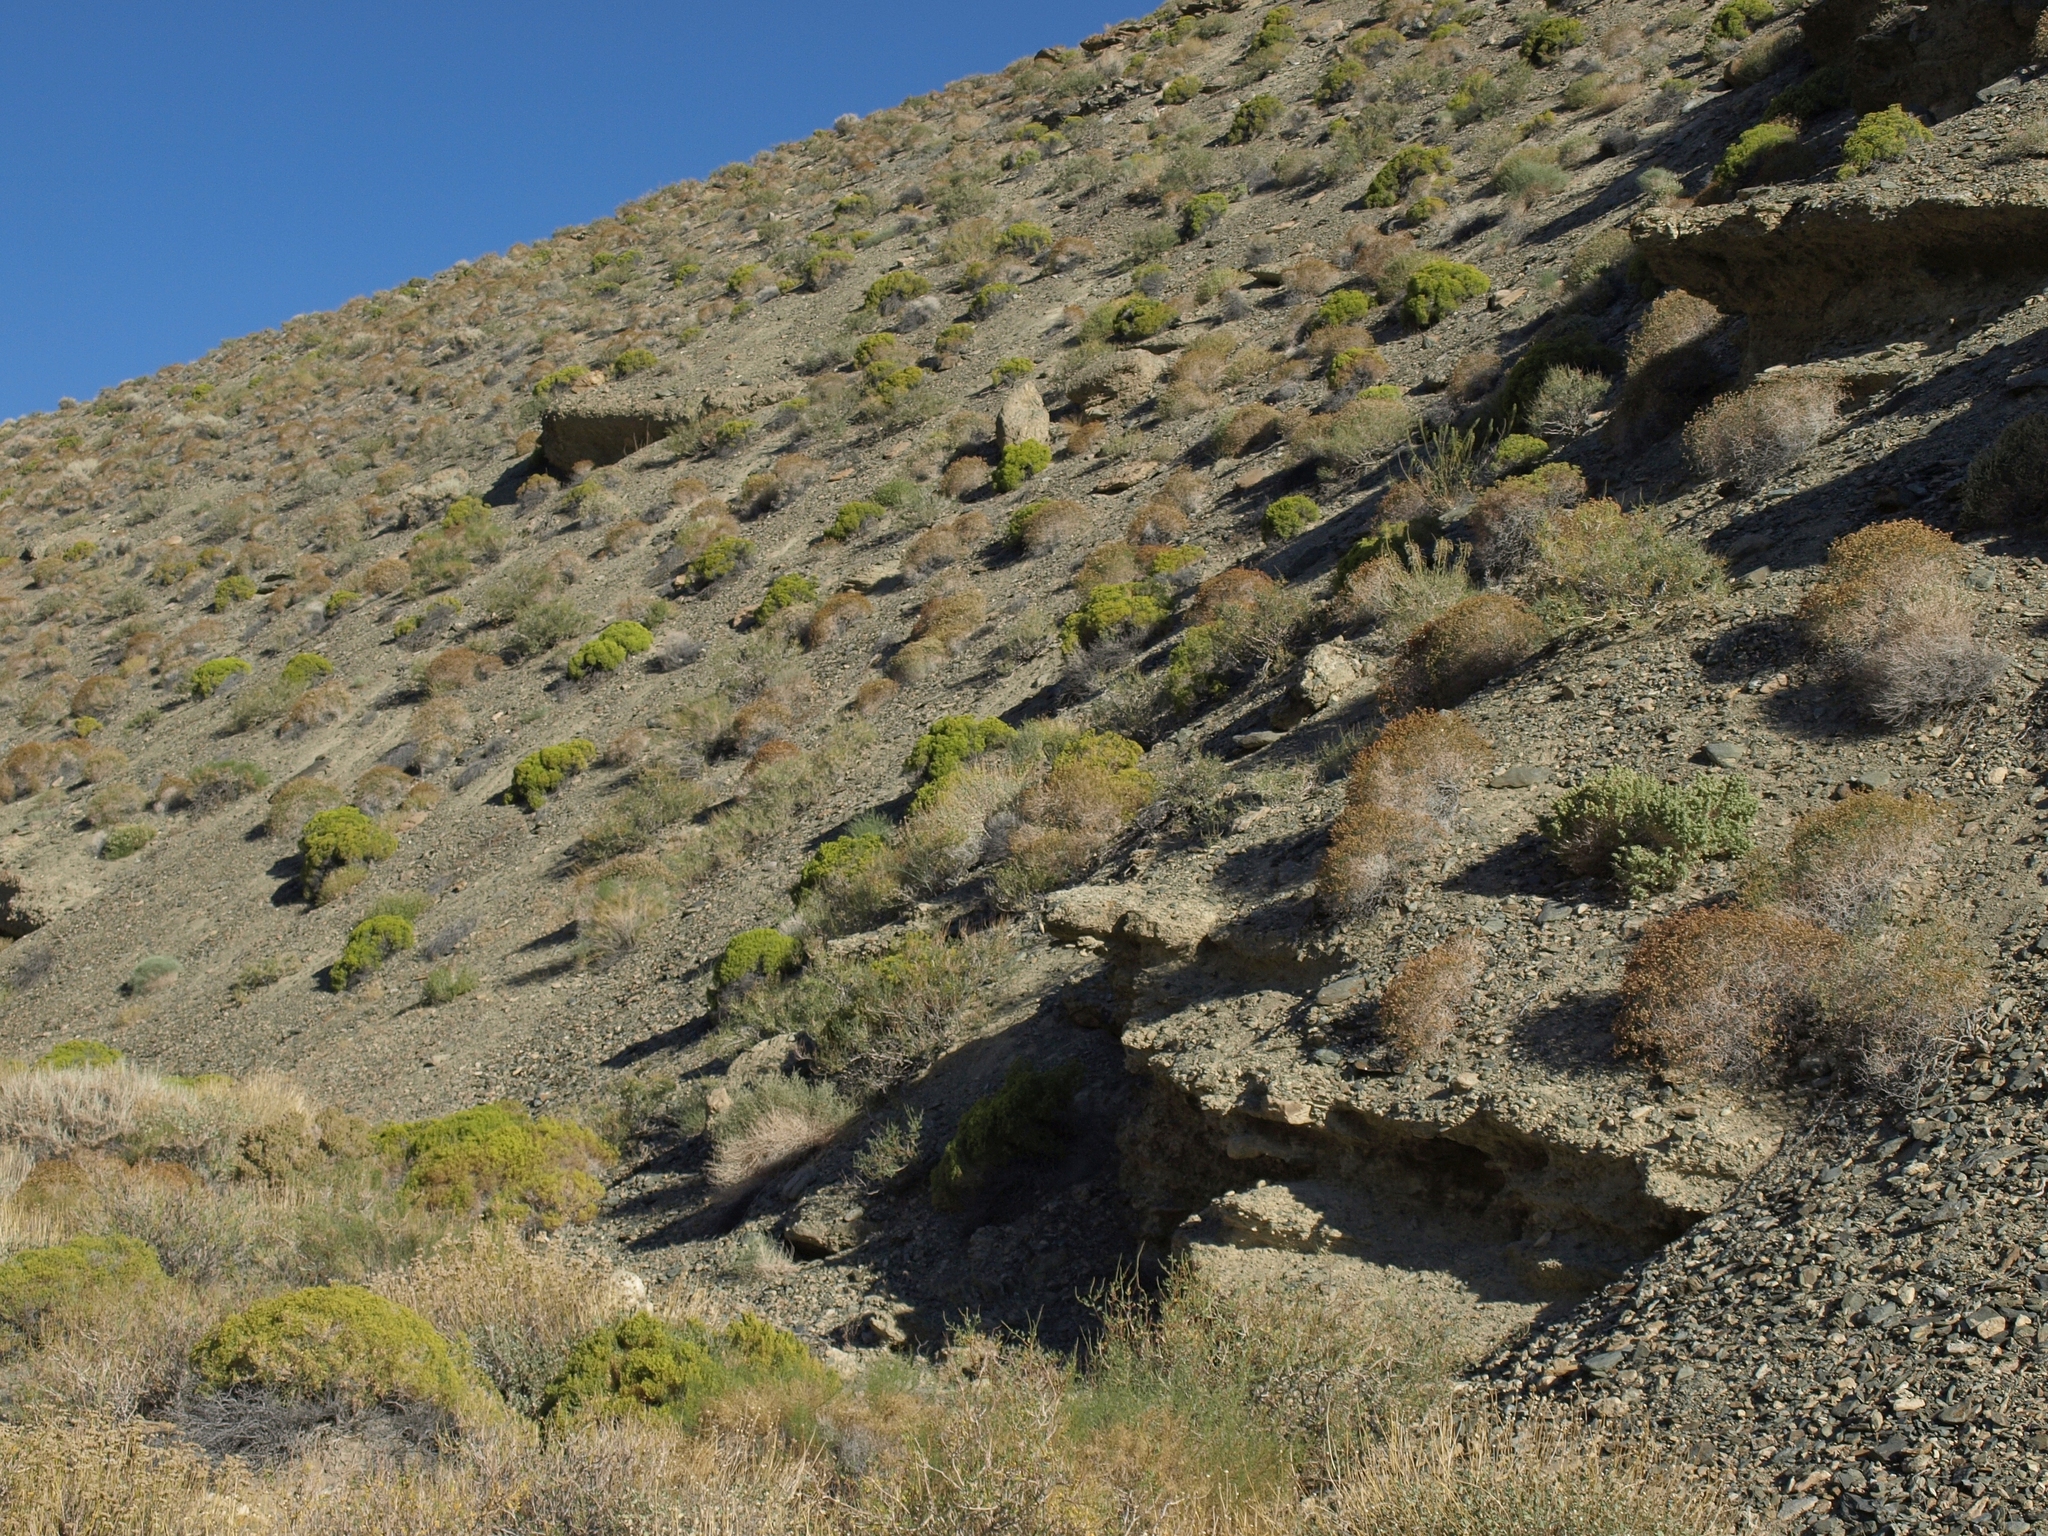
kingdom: Plantae
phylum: Tracheophyta
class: Magnoliopsida
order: Caryophyllales
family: Polygonaceae
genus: Dedeckera
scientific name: Dedeckera eurekensis
